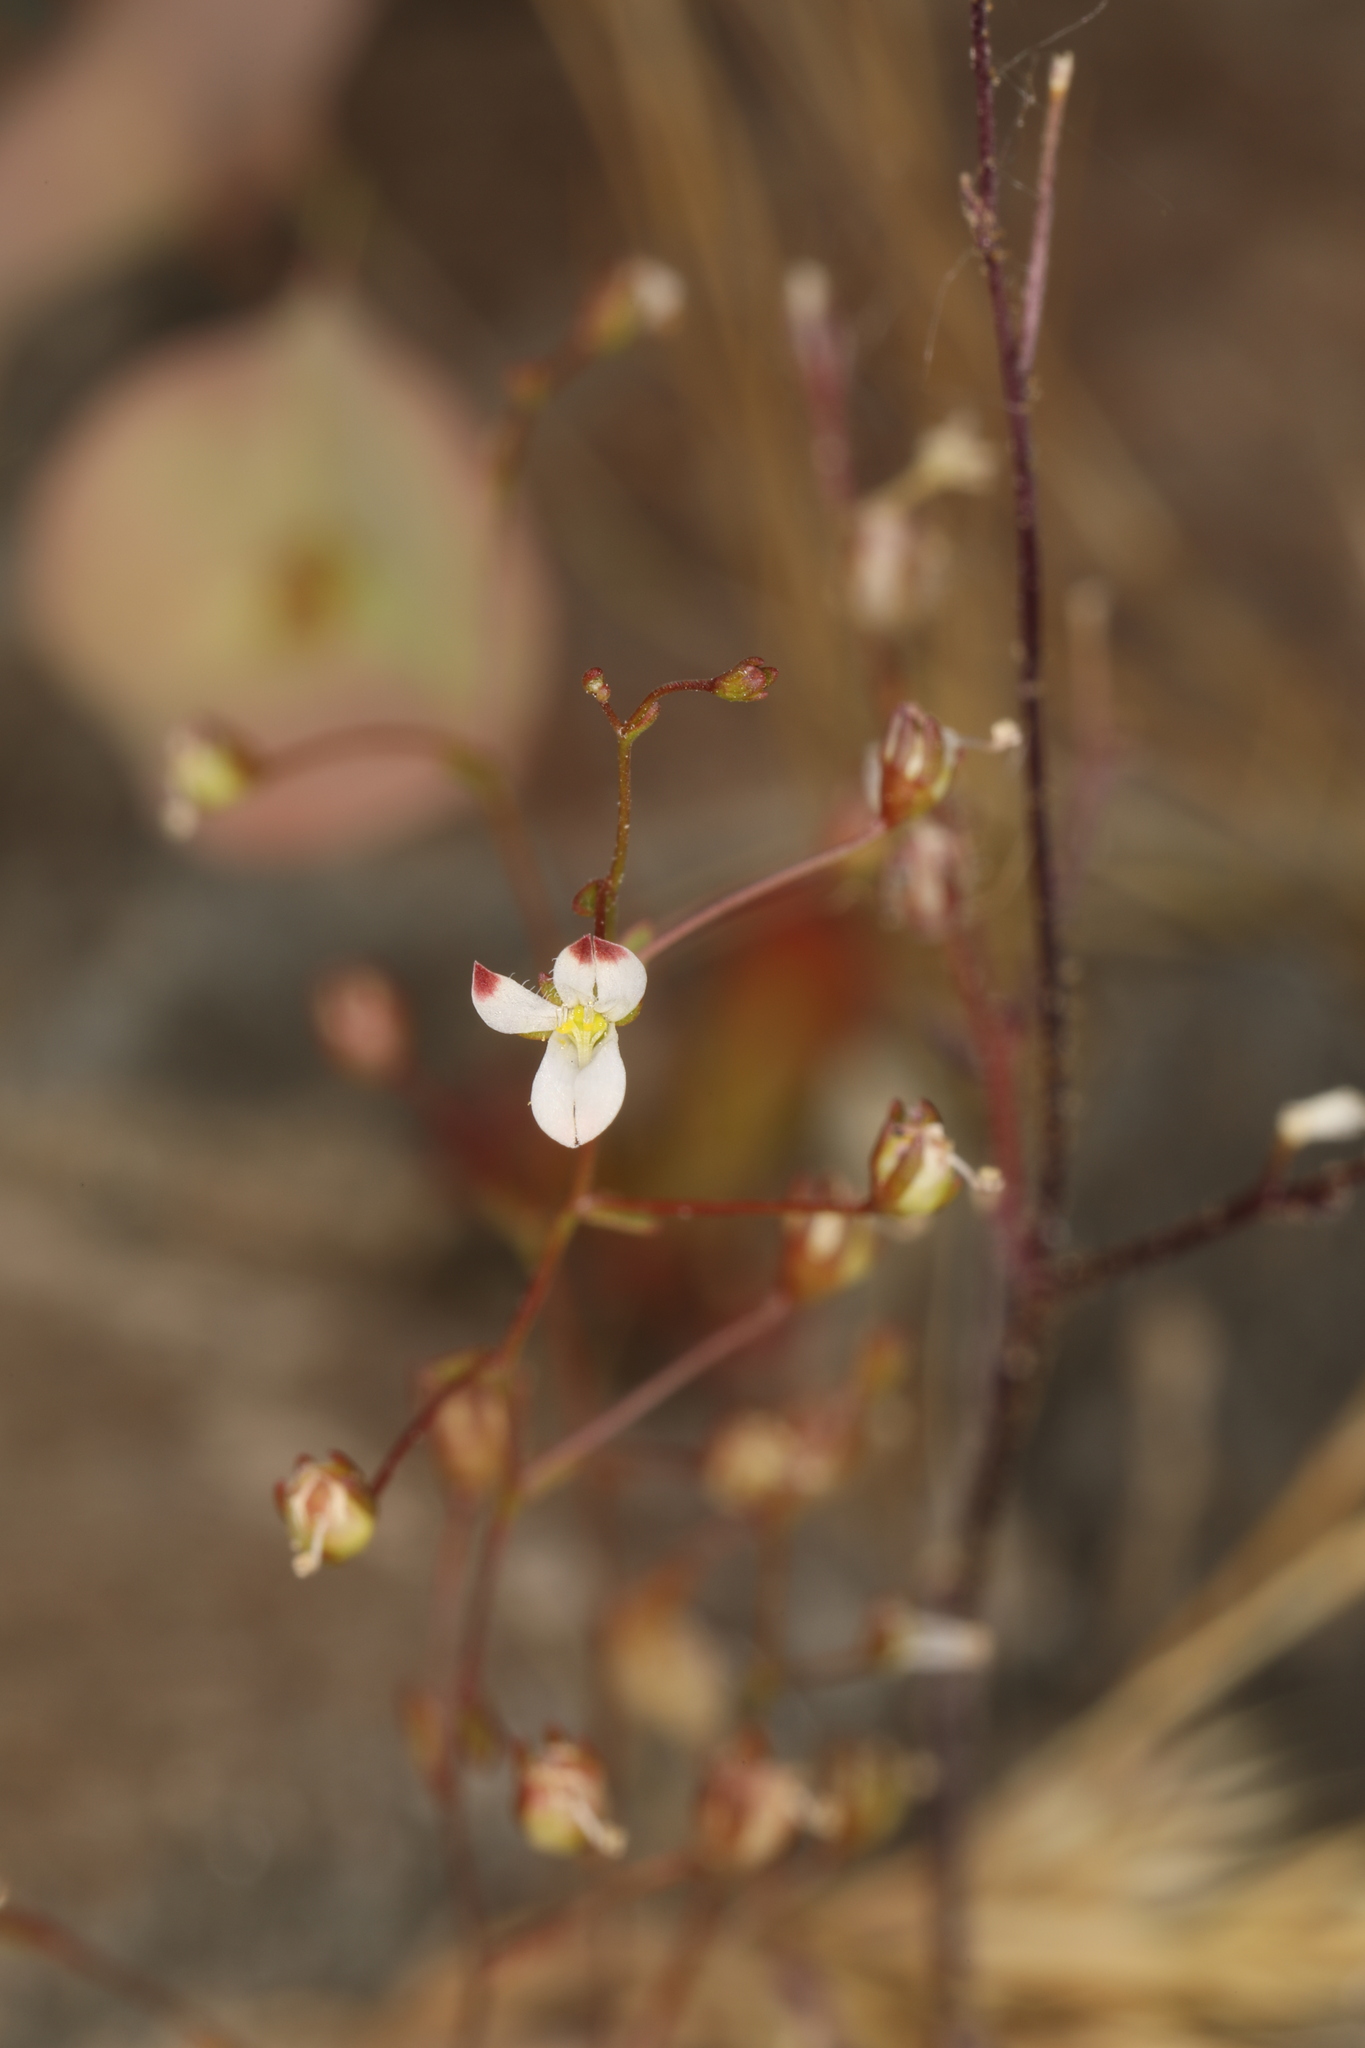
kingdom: Plantae
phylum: Tracheophyta
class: Magnoliopsida
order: Asterales
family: Campanulaceae
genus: Nemacladus
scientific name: Nemacladus orientalis
